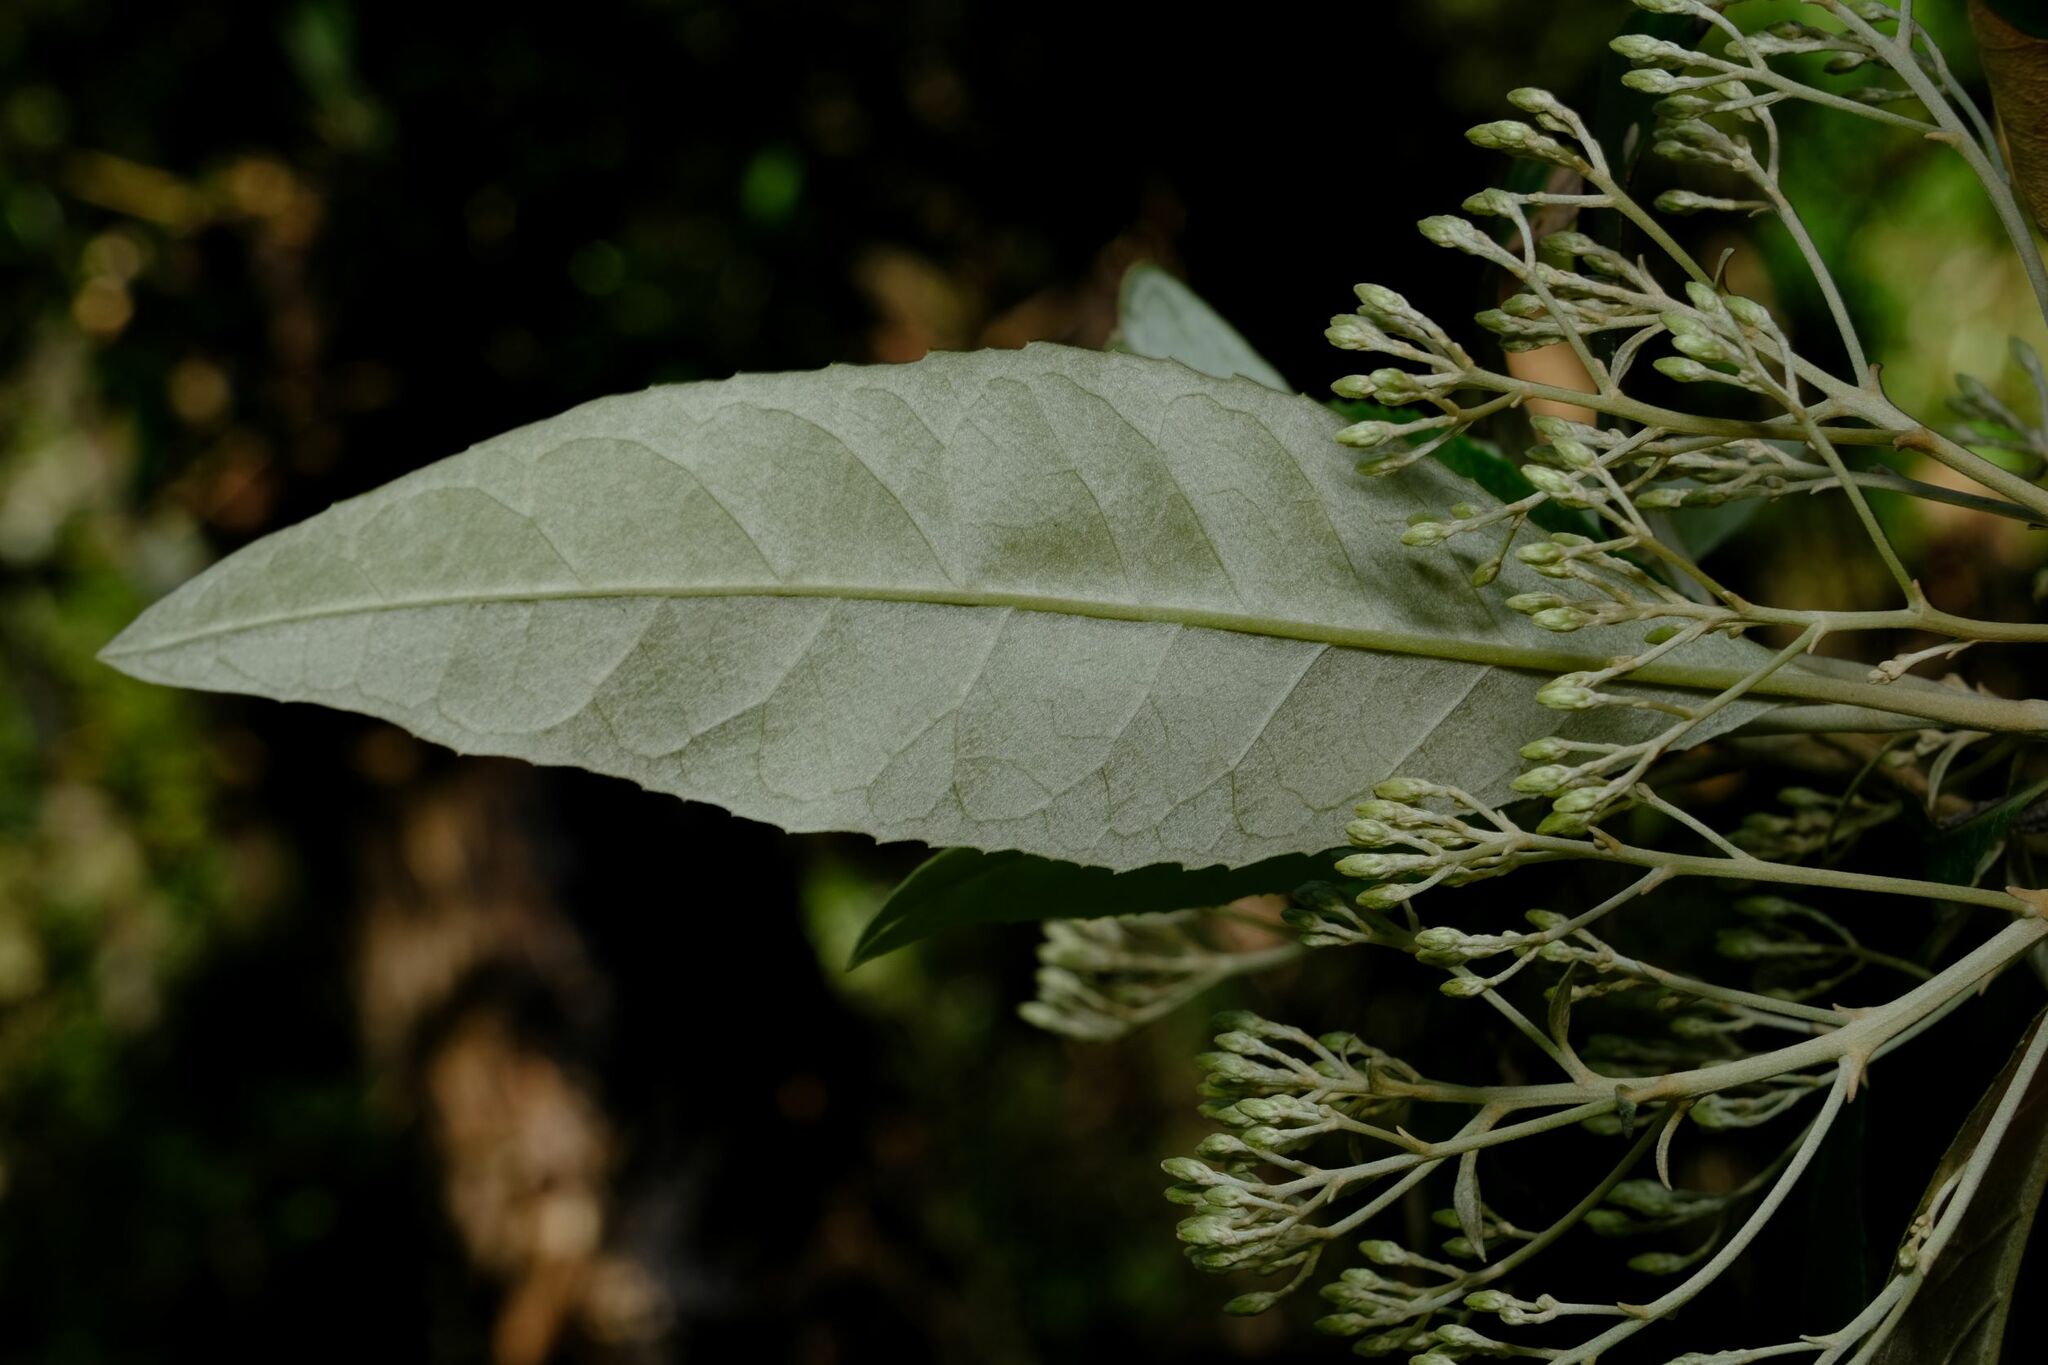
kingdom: Plantae
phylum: Tracheophyta
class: Magnoliopsida
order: Asterales
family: Asteraceae
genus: Olearia
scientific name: Olearia argophylla
